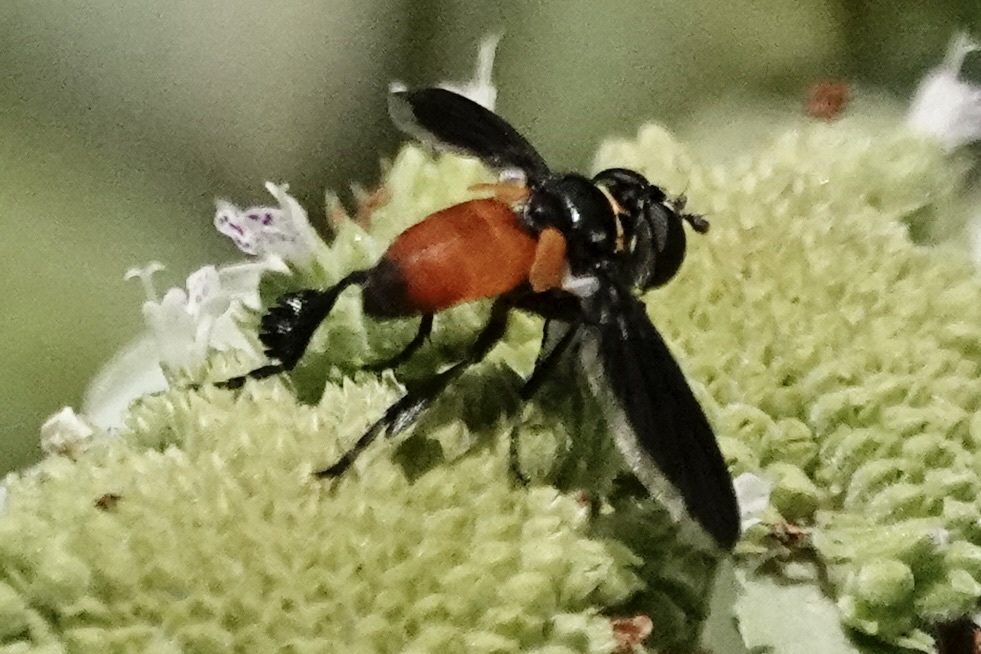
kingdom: Animalia
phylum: Arthropoda
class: Insecta
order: Diptera
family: Tachinidae
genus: Trichopoda
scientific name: Trichopoda pennipes
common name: Tachinid fly
